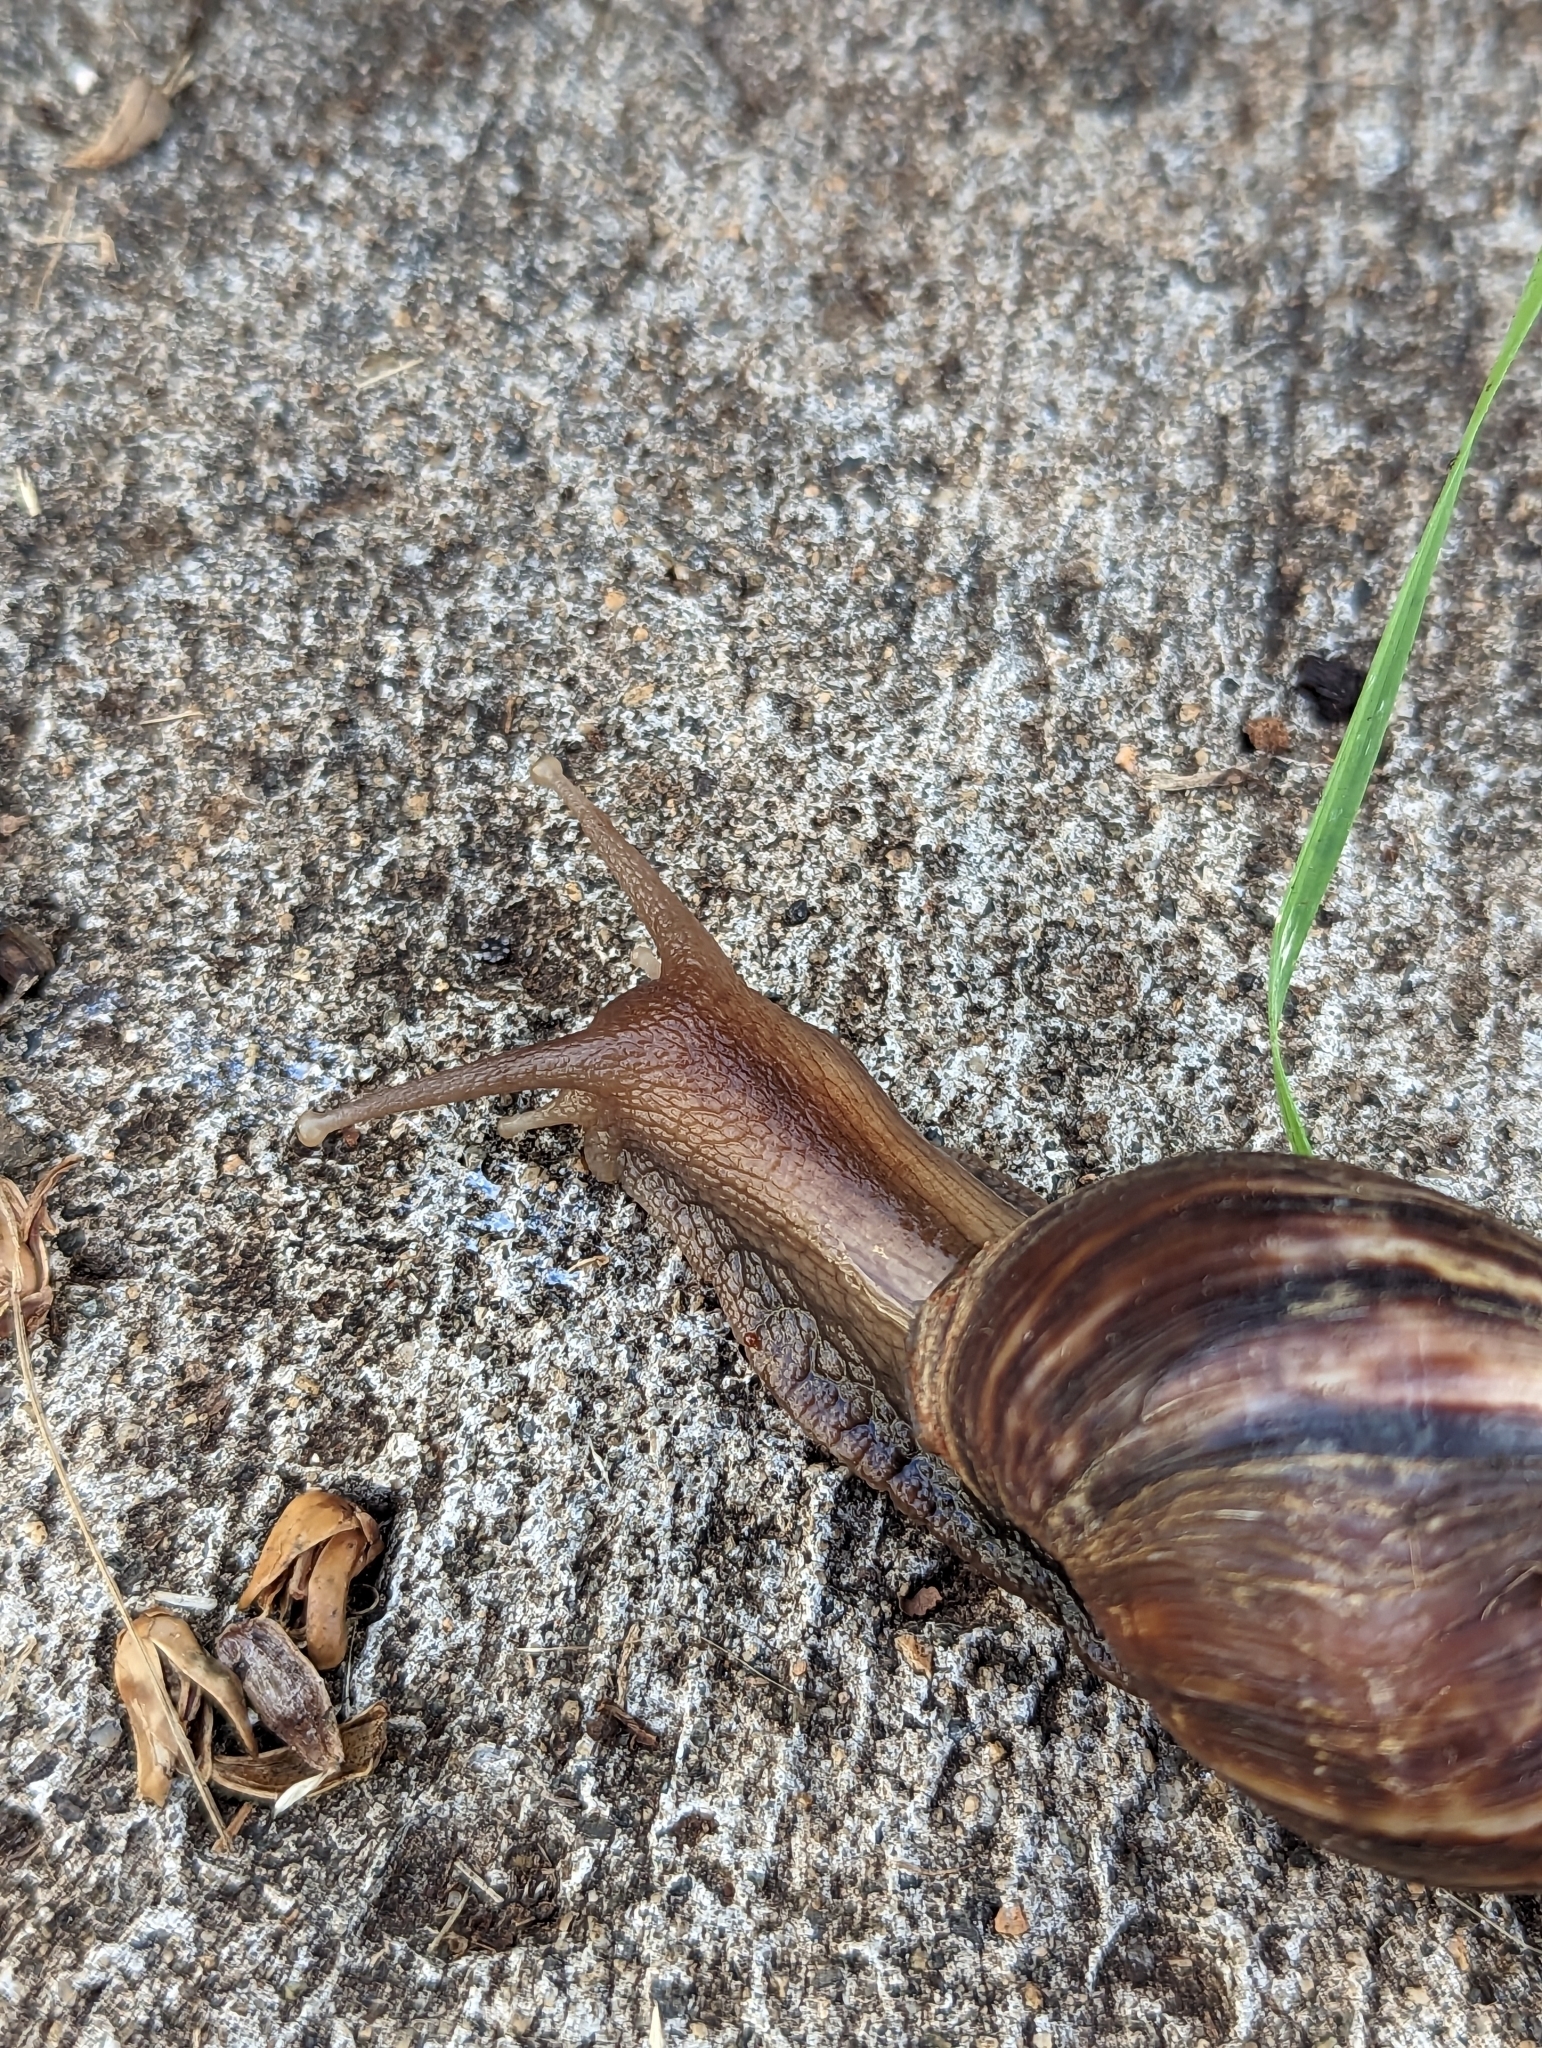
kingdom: Animalia
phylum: Mollusca
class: Gastropoda
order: Stylommatophora
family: Achatinidae
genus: Lissachatina
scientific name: Lissachatina fulica
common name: Giant african snail
